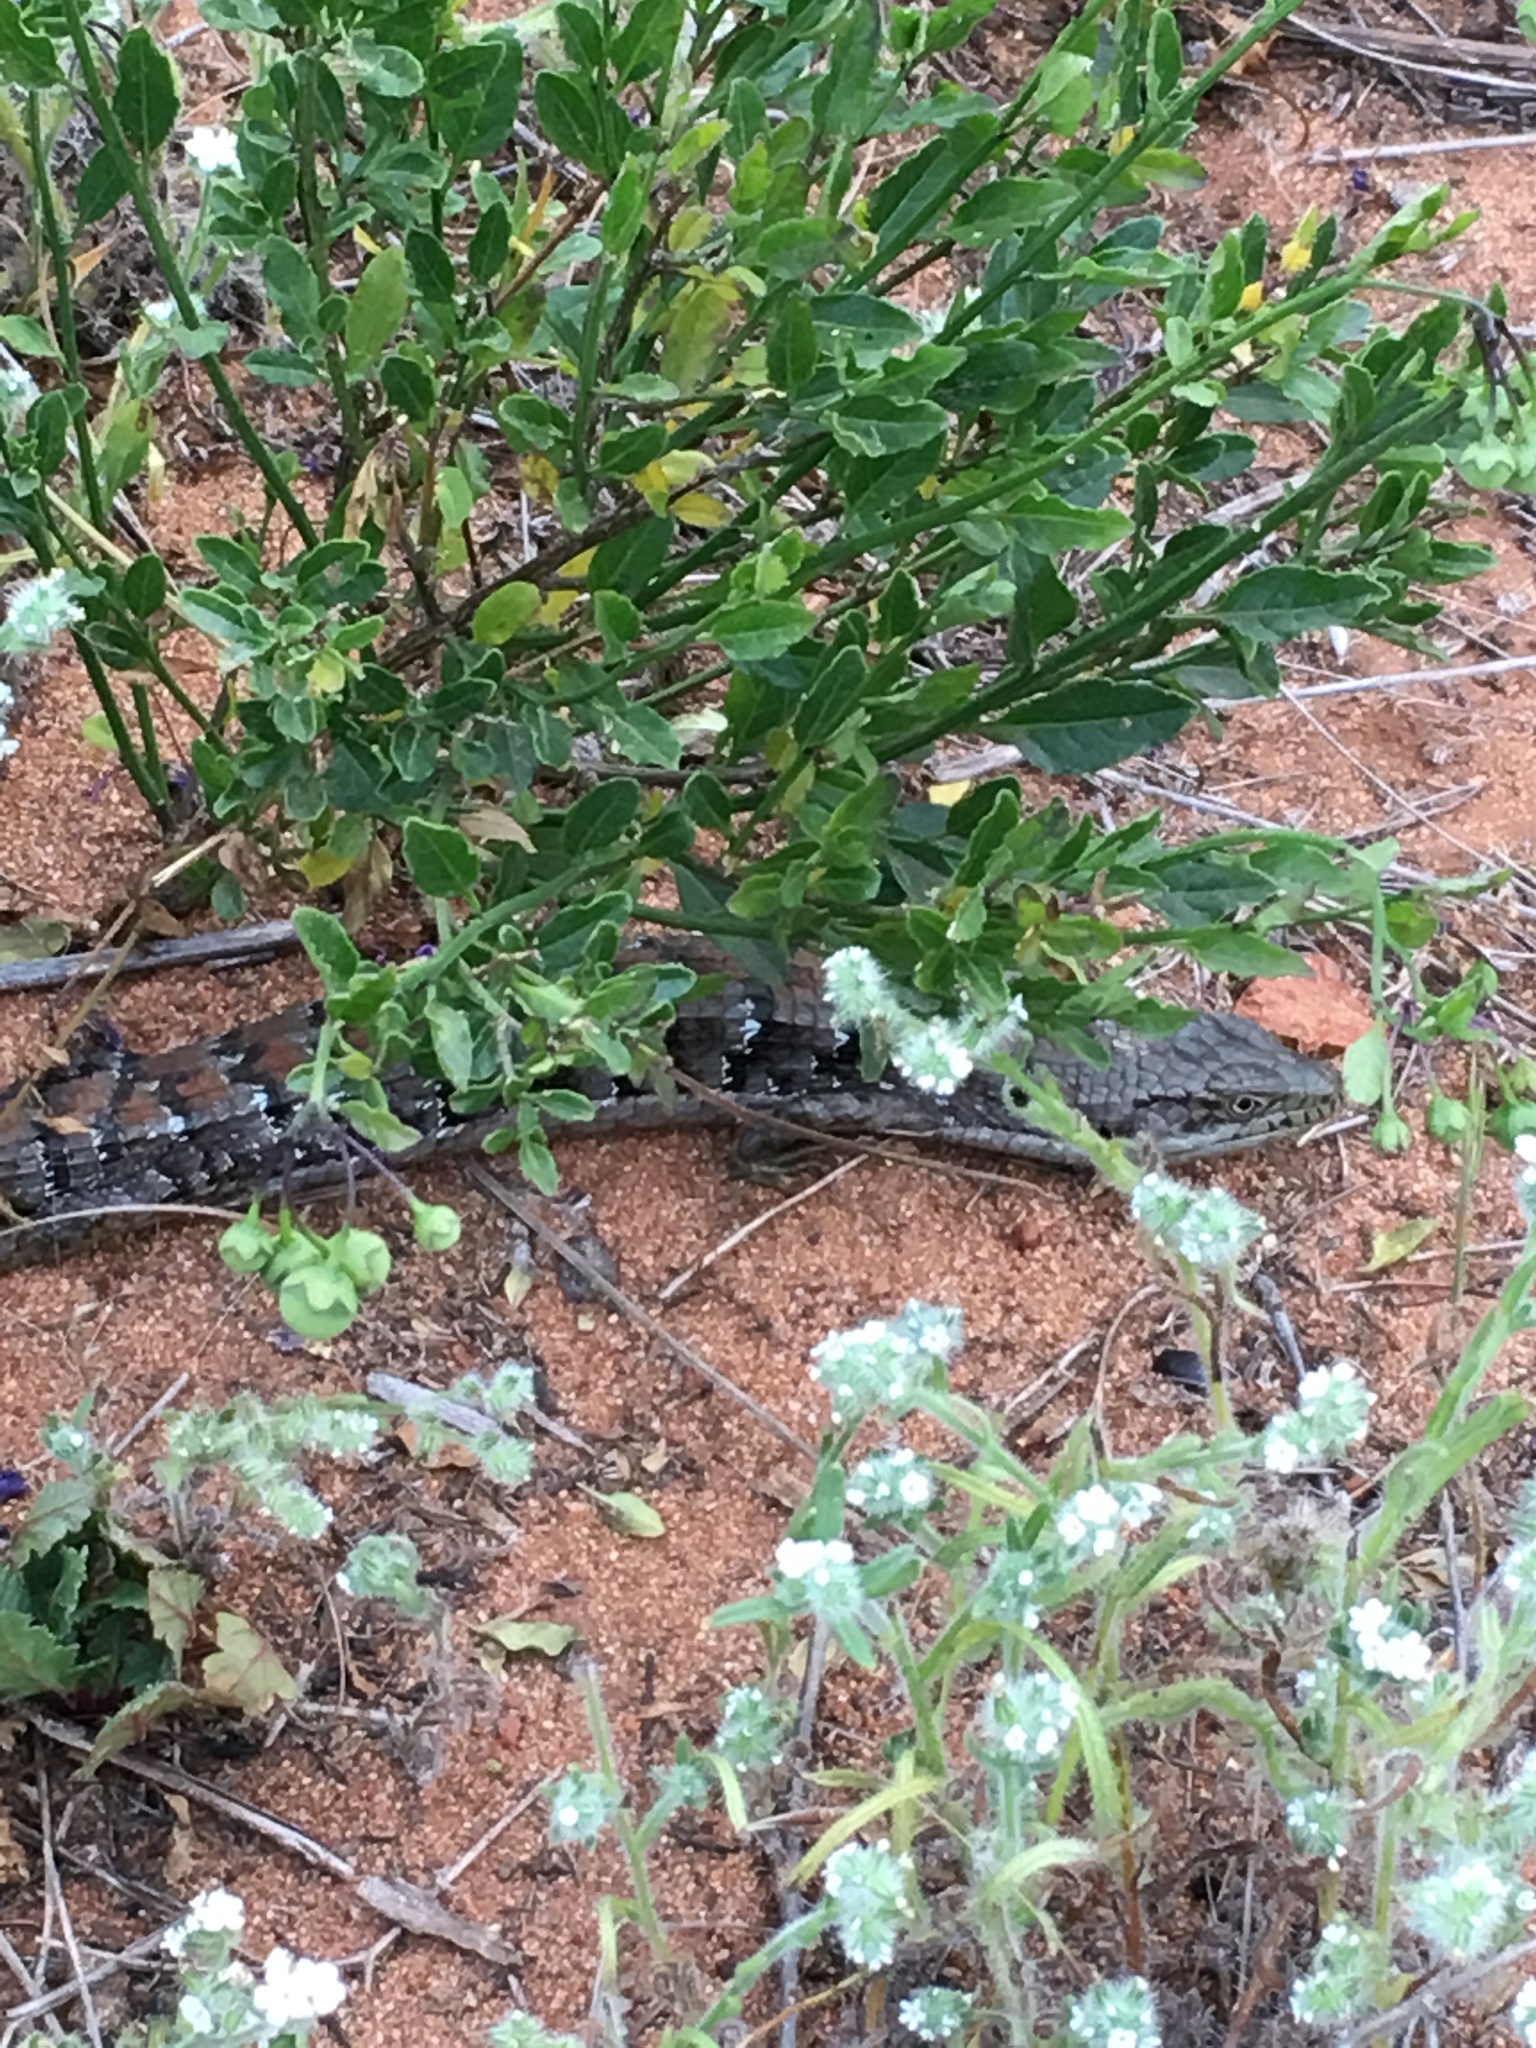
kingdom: Animalia
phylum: Chordata
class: Squamata
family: Anguidae
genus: Elgaria
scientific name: Elgaria multicarinata
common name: Southern alligator lizard
